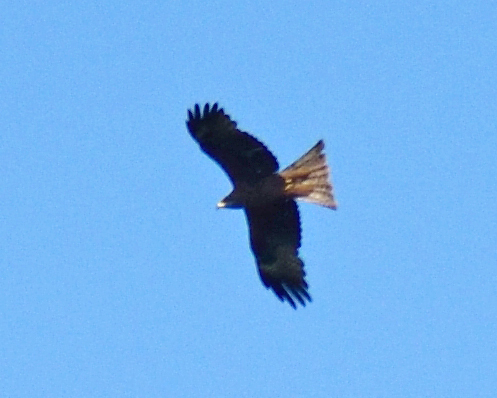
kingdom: Animalia
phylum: Chordata
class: Aves
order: Accipitriformes
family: Accipitridae
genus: Milvus
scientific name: Milvus migrans
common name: Black kite
